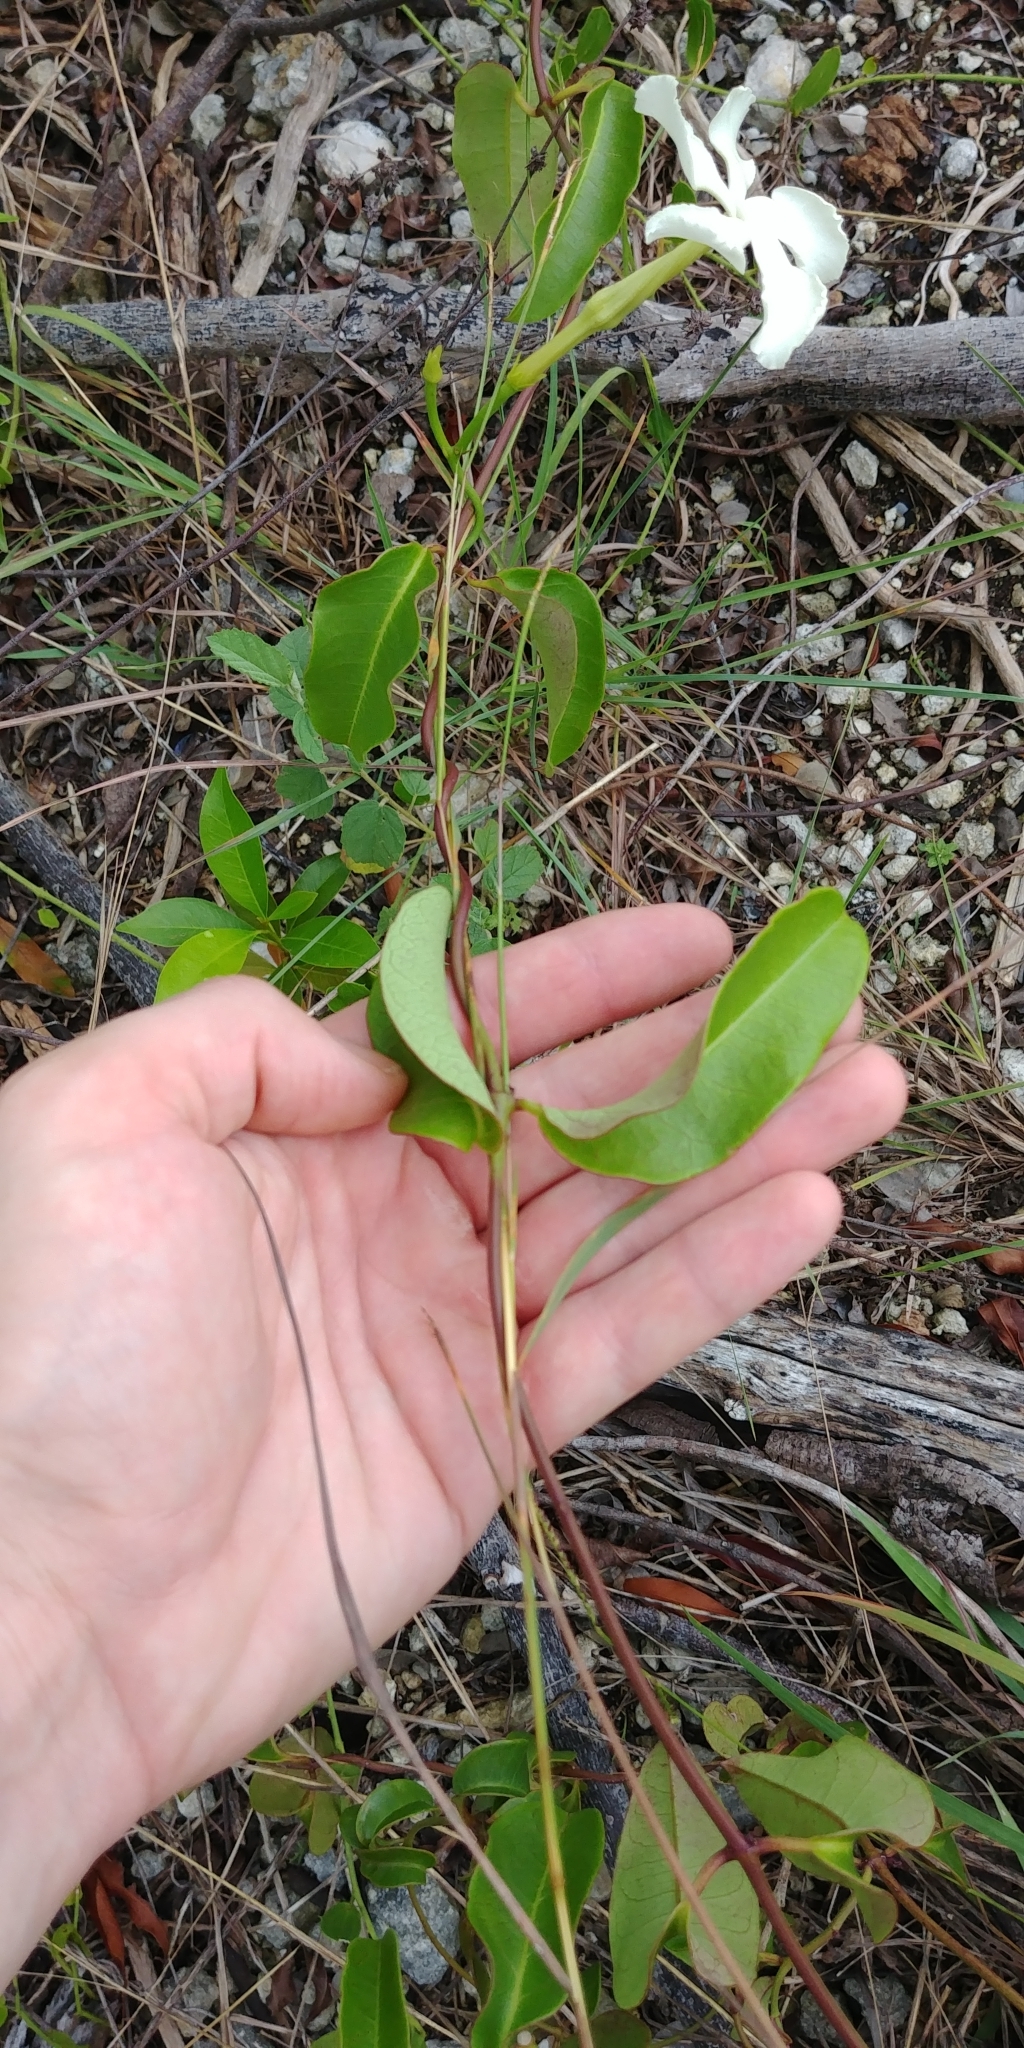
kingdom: Plantae
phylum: Tracheophyta
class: Magnoliopsida
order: Gentianales
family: Apocynaceae
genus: Echites
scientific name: Echites umbellatus
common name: Devil's potato
